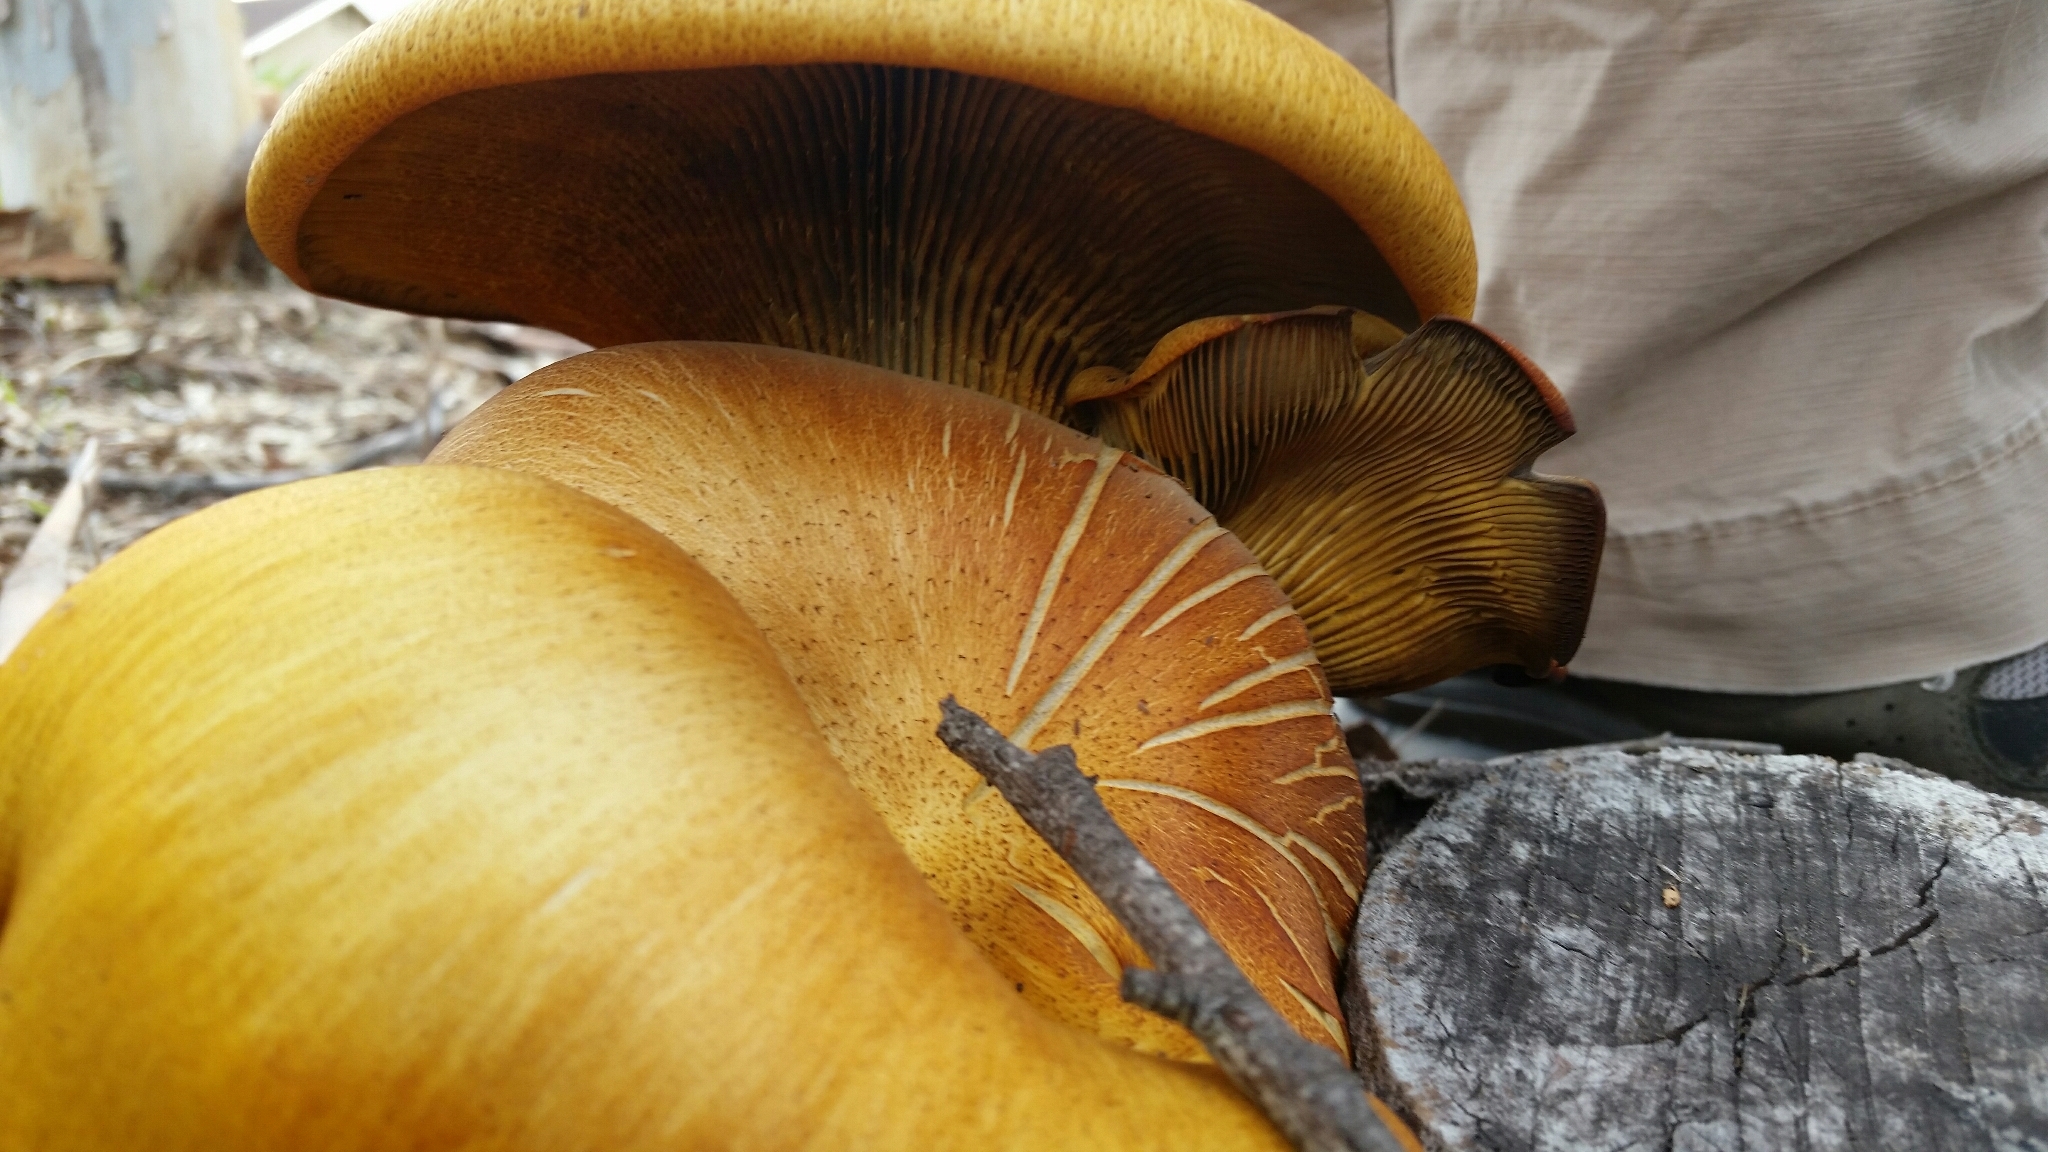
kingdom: Fungi
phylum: Basidiomycota
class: Agaricomycetes
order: Agaricales
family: Omphalotaceae
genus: Omphalotus
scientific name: Omphalotus olivascens
